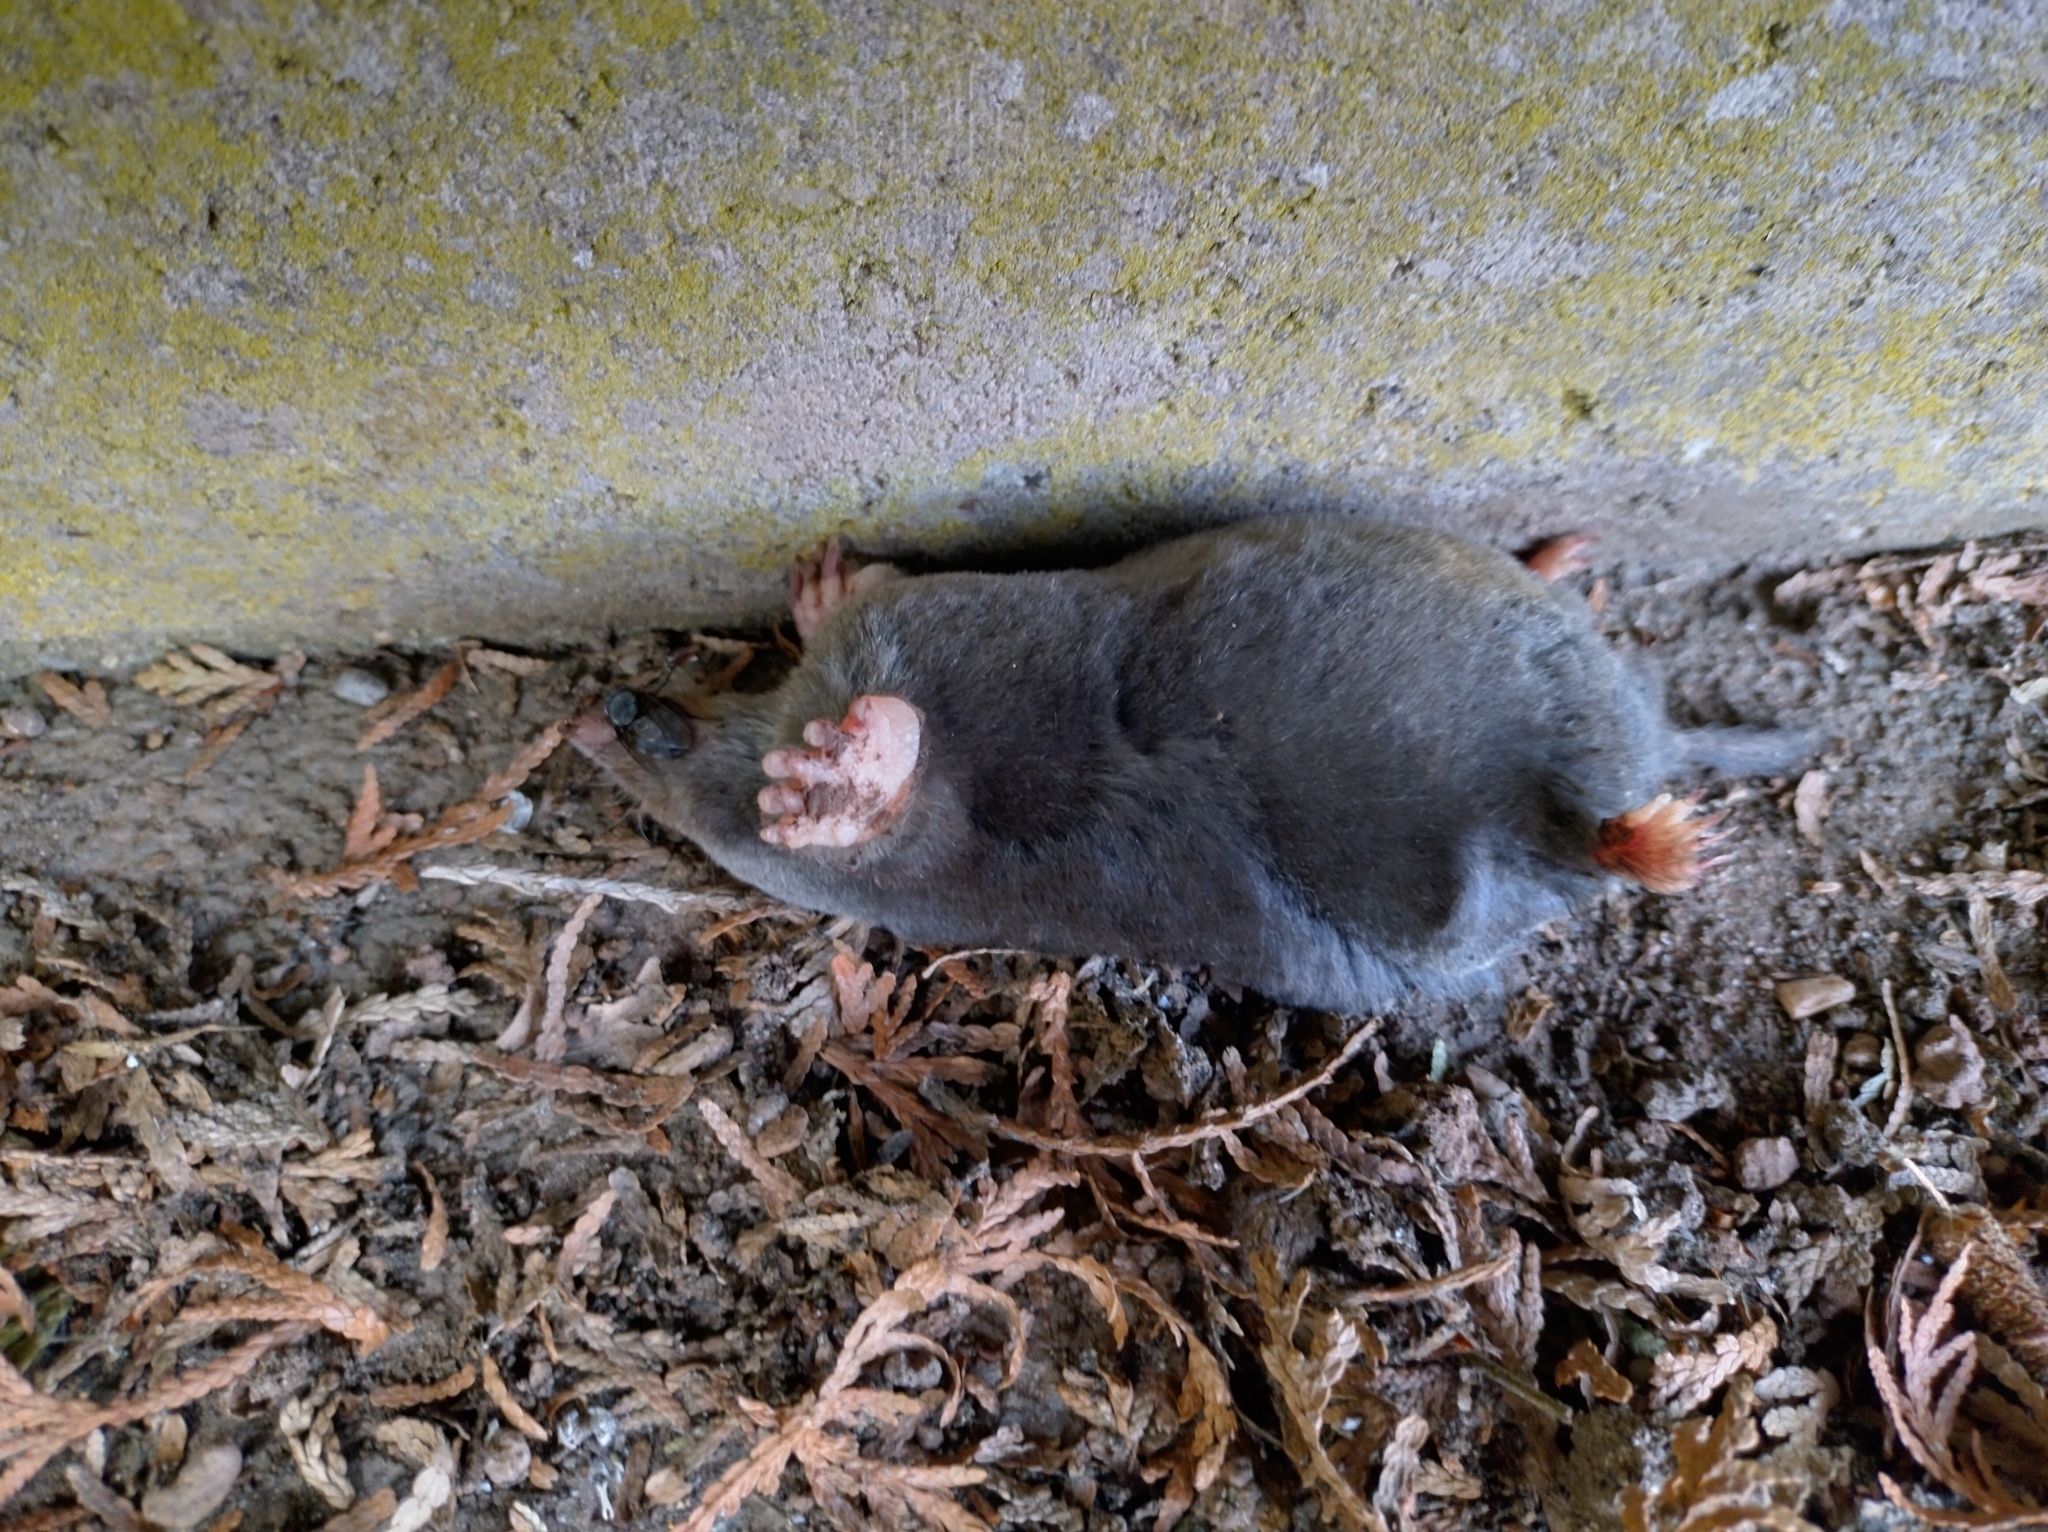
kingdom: Animalia
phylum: Chordata
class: Mammalia
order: Soricomorpha
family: Talpidae
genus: Talpa
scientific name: Talpa europaea
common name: European mole
